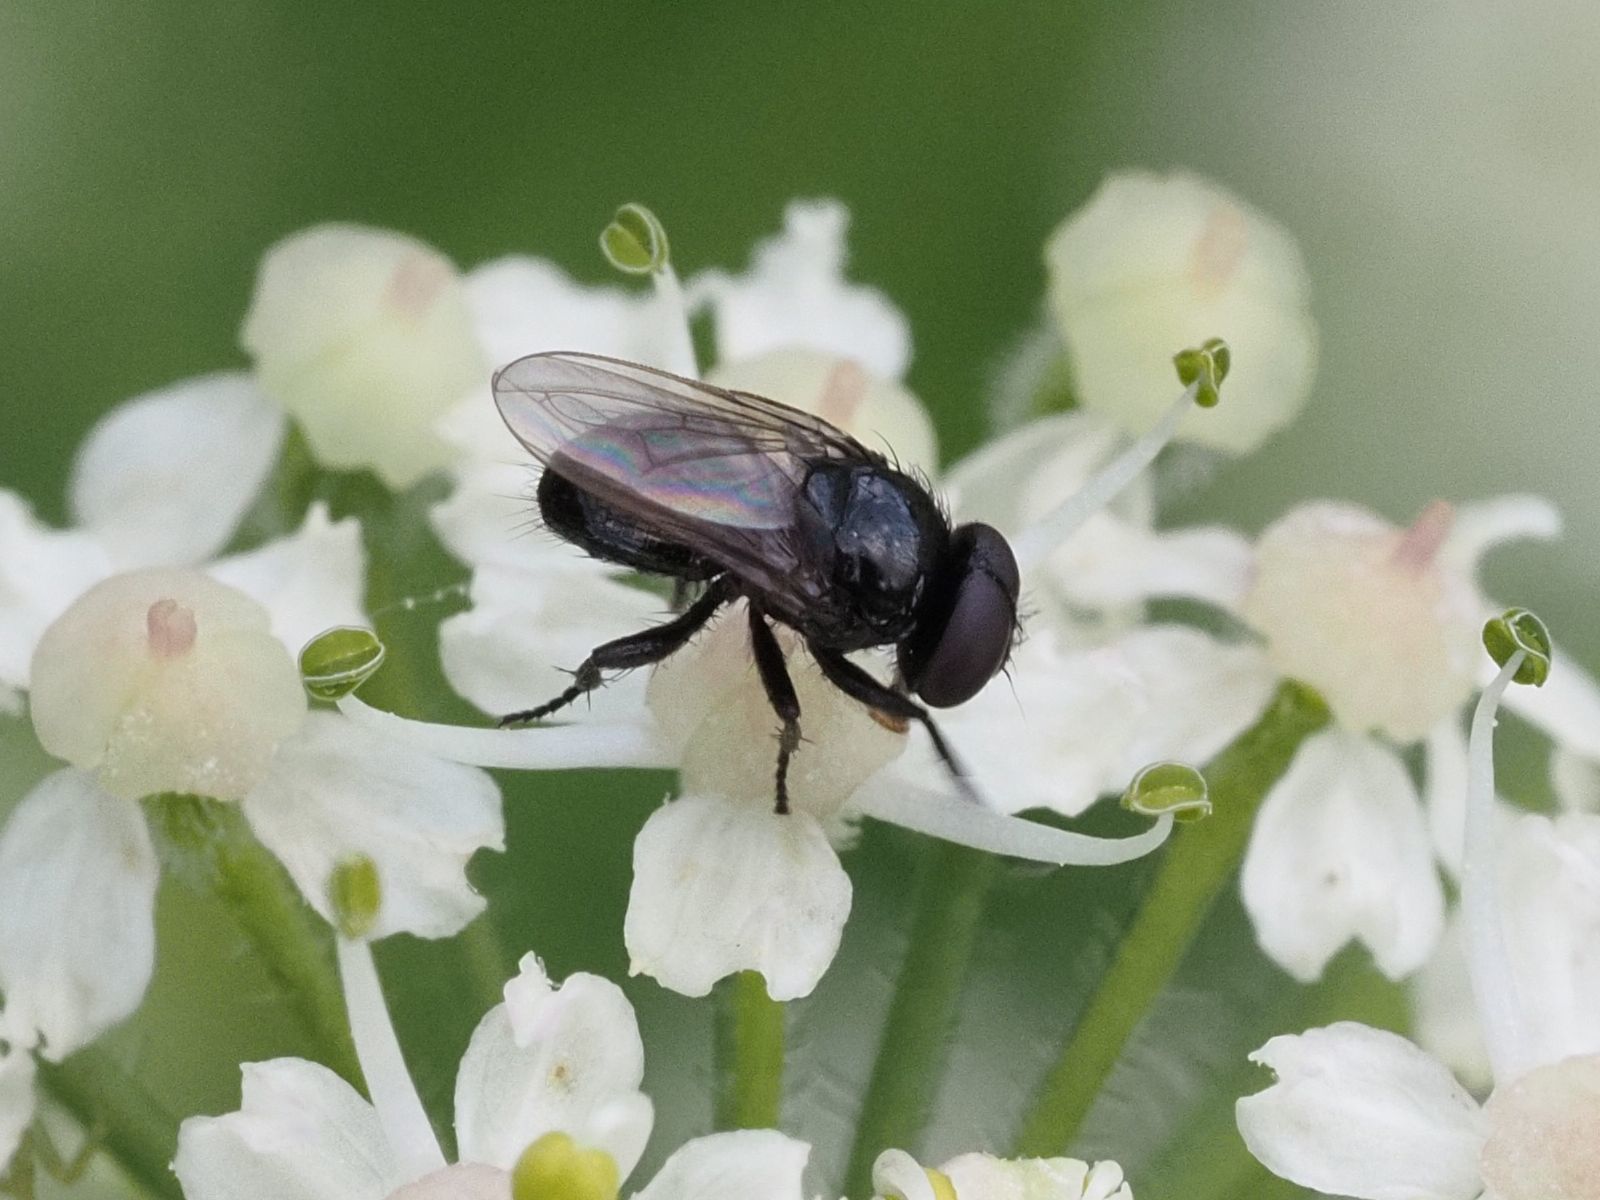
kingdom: Animalia
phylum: Arthropoda
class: Insecta
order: Diptera
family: Tachinidae
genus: Litophasia
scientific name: Litophasia hyalipennis
